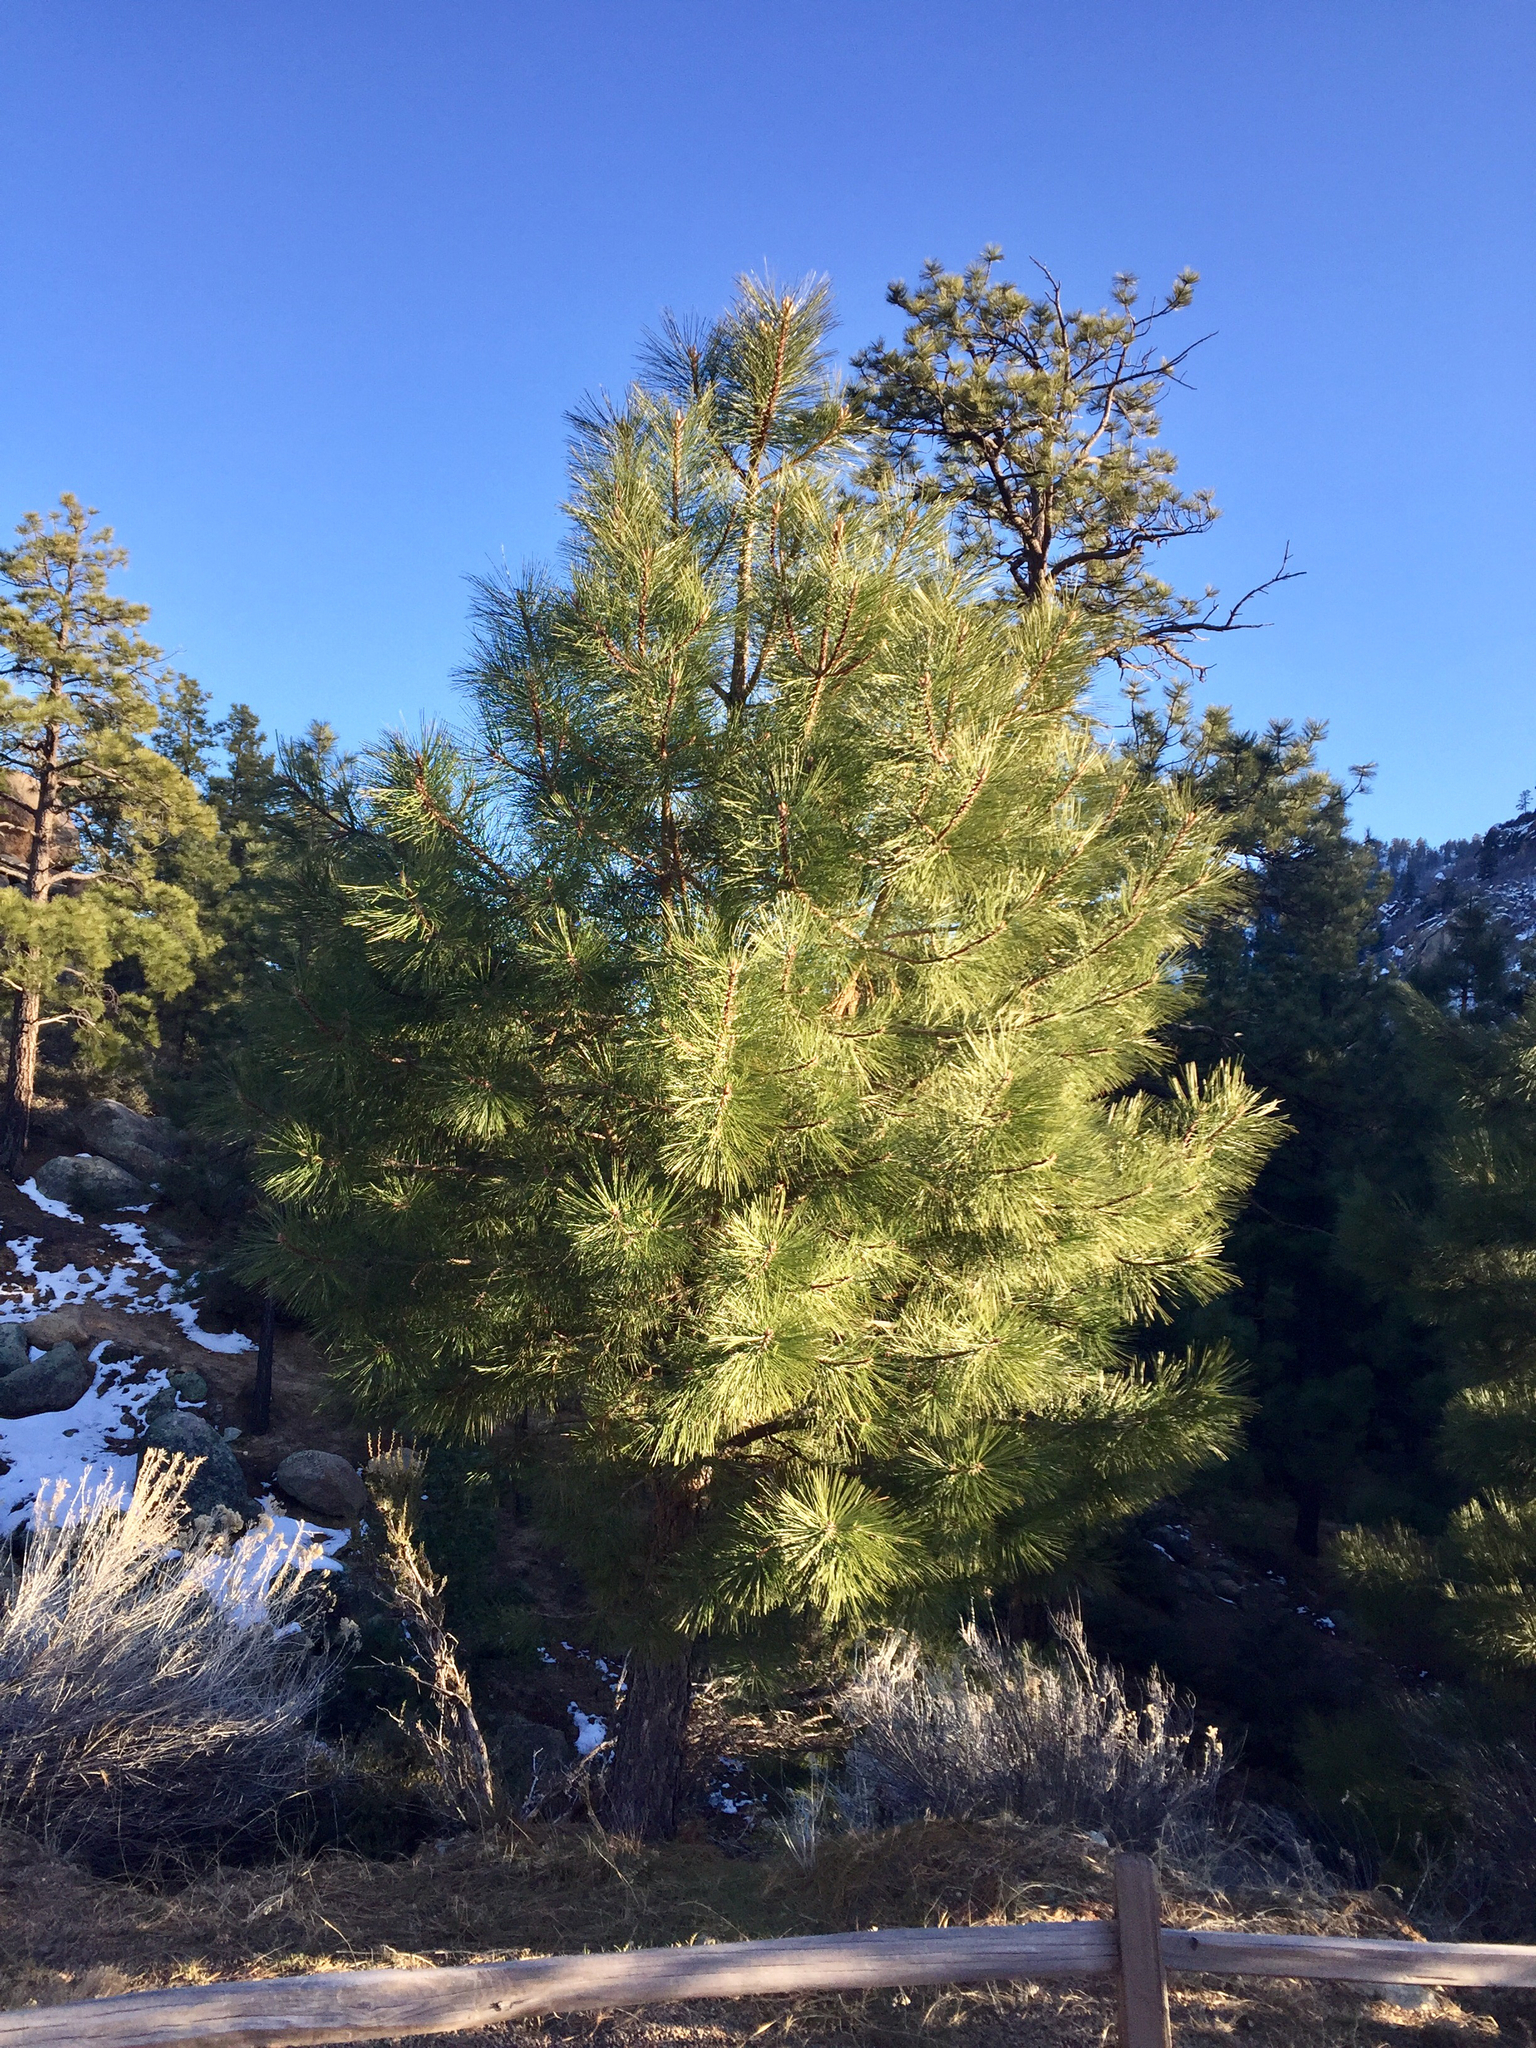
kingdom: Plantae
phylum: Tracheophyta
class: Pinopsida
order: Pinales
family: Pinaceae
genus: Pinus
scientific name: Pinus ponderosa
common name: Western yellow-pine
